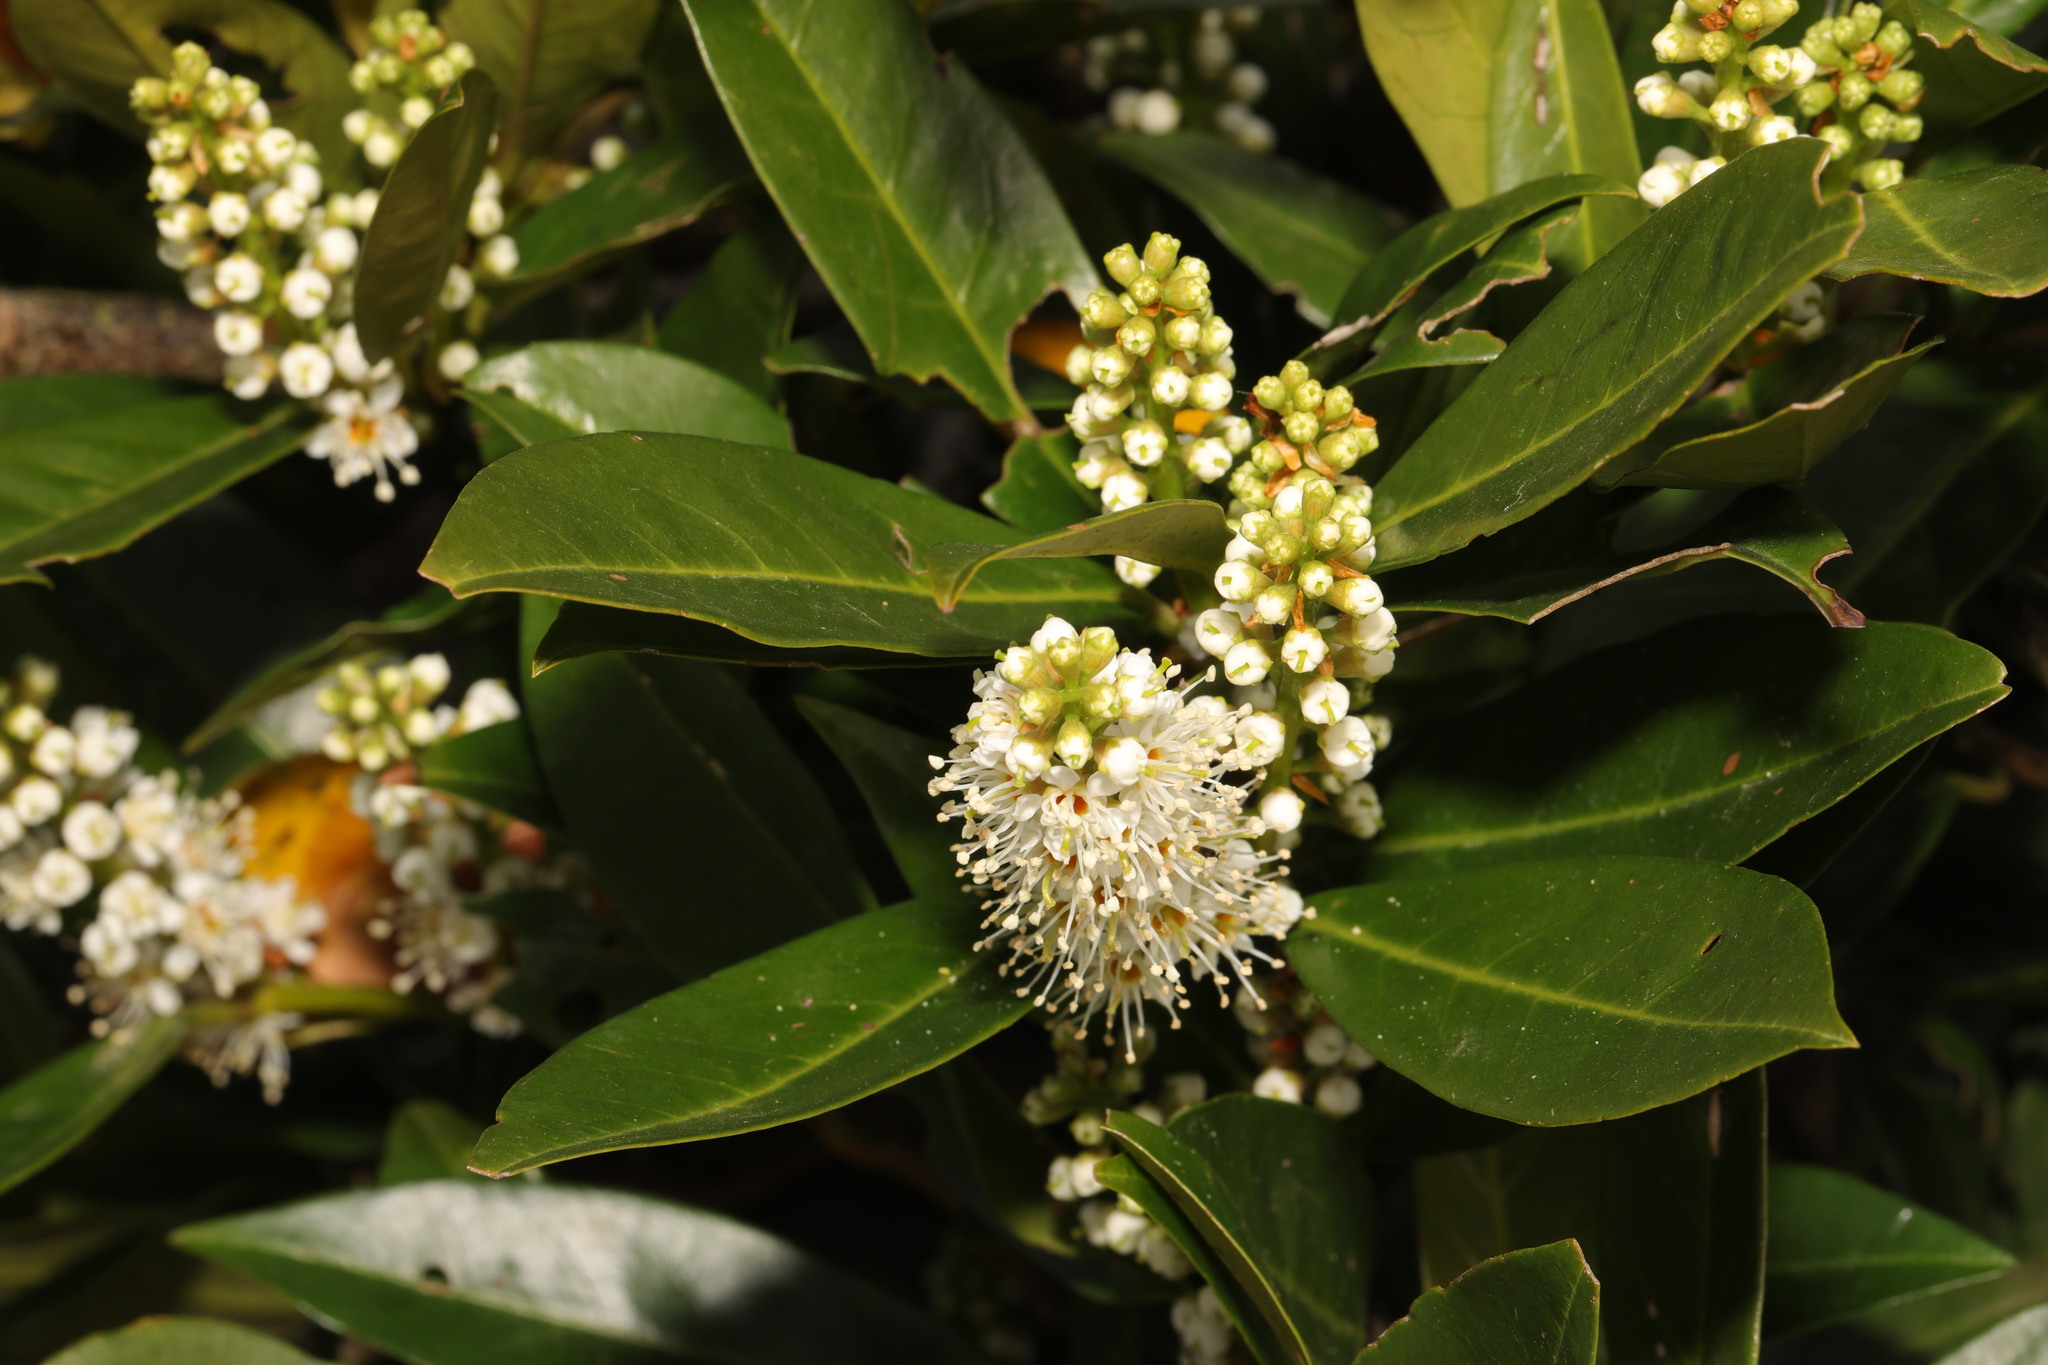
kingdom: Plantae
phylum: Tracheophyta
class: Magnoliopsida
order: Rosales
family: Rosaceae
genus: Prunus
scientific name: Prunus laurocerasus
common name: Cherry laurel
